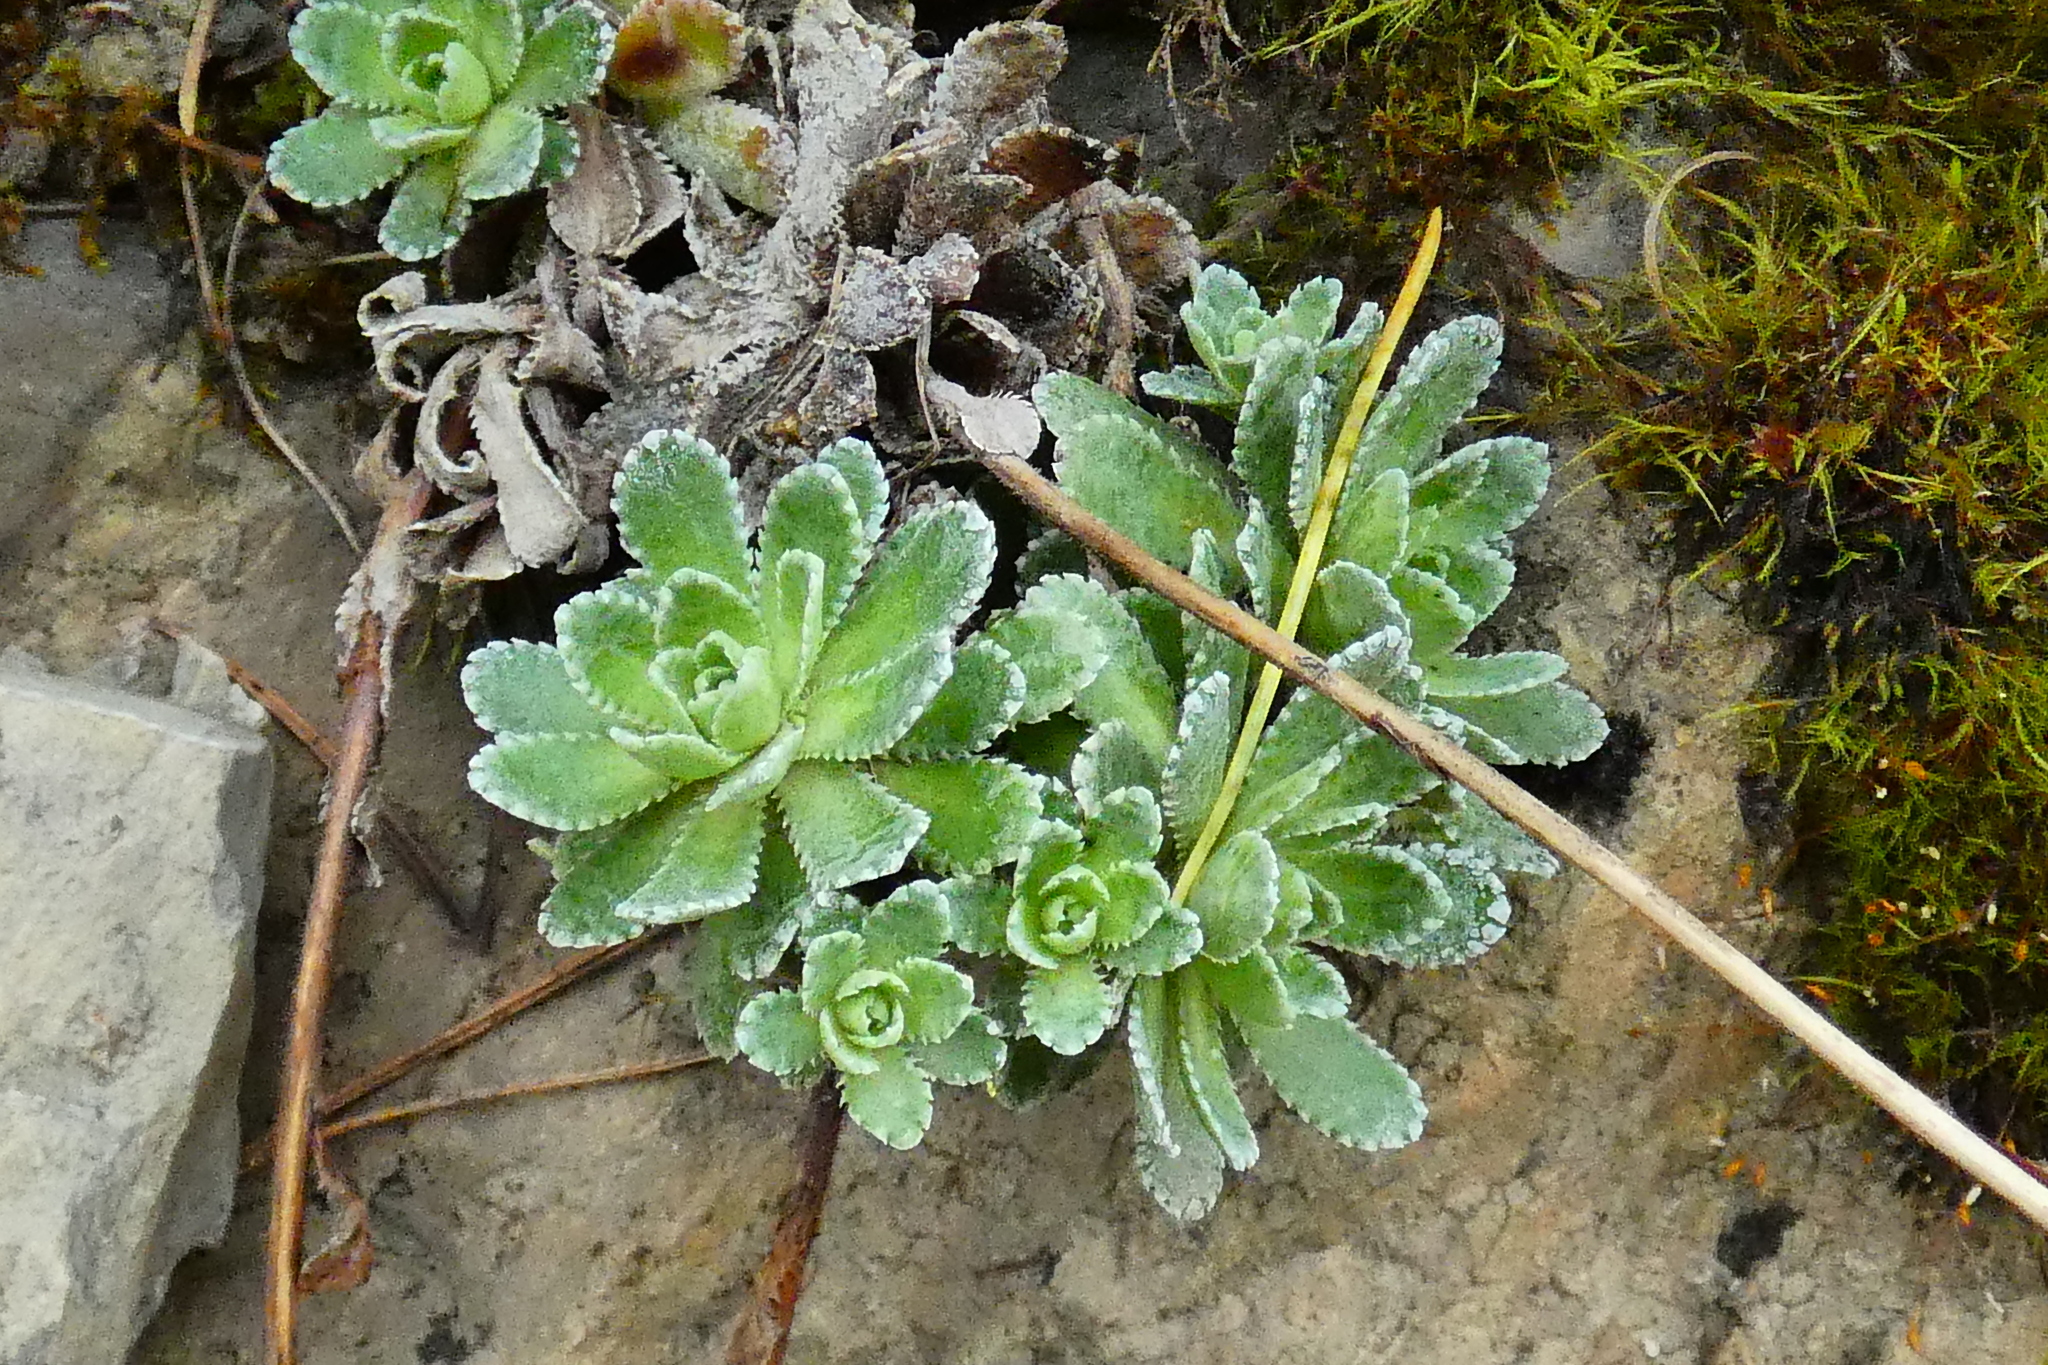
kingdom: Plantae
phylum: Tracheophyta
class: Magnoliopsida
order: Saxifragales
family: Saxifragaceae
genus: Saxifraga
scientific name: Saxifraga paniculata
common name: Livelong saxifrage
